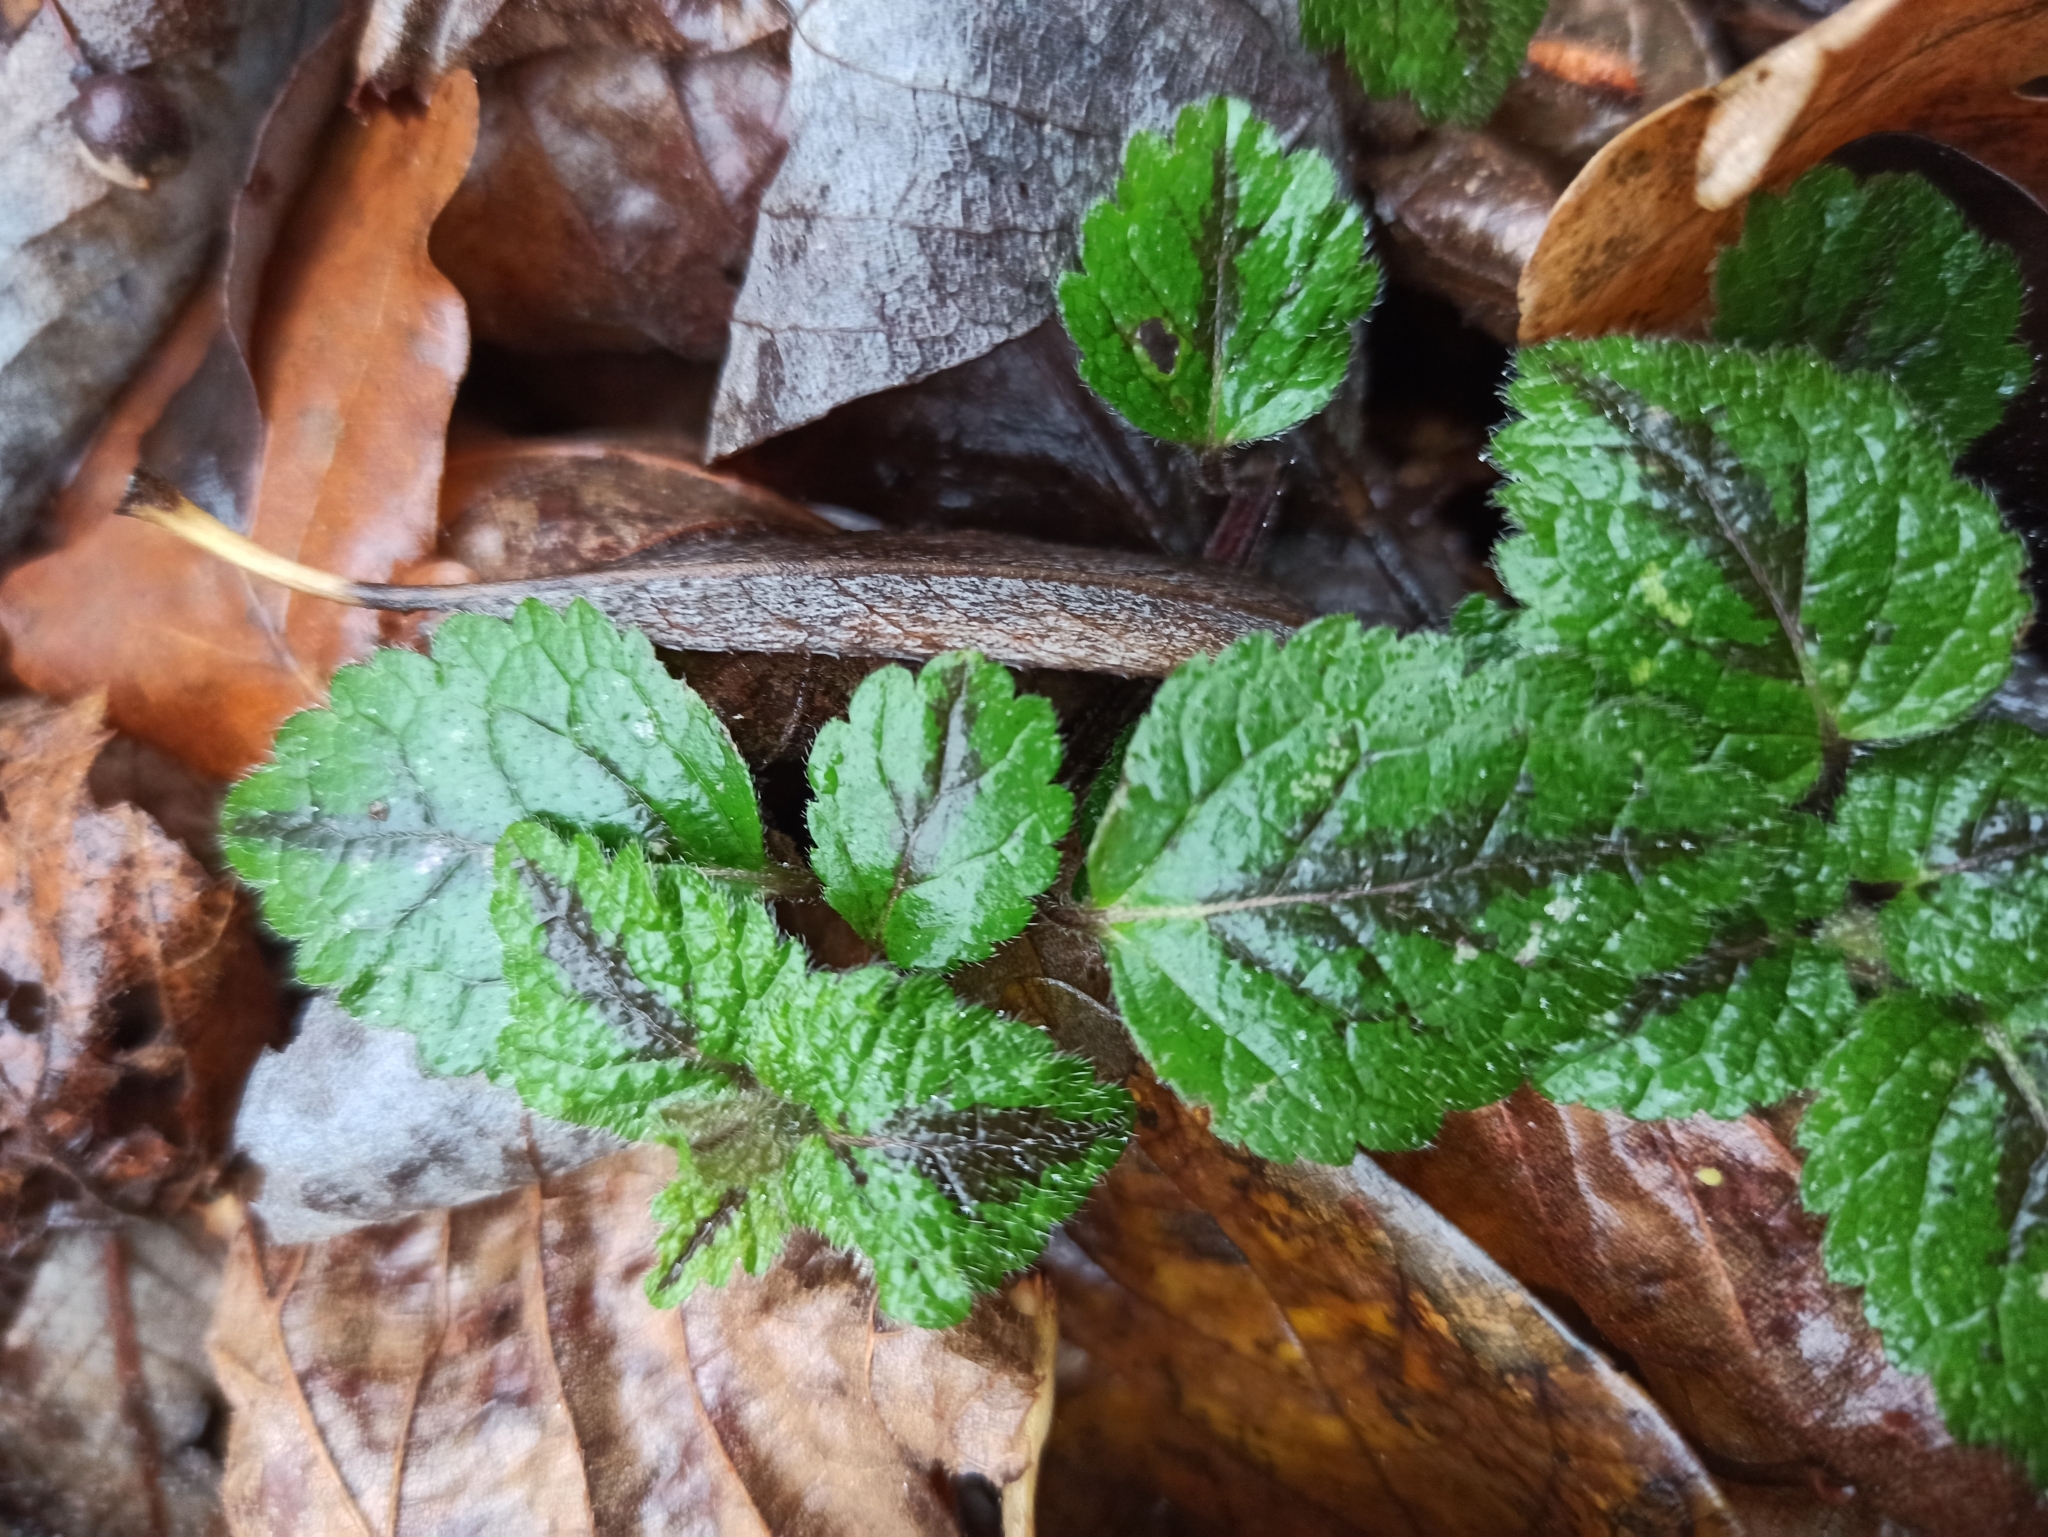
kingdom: Plantae
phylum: Tracheophyta
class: Magnoliopsida
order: Lamiales
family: Lamiaceae
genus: Lamium
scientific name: Lamium galeobdolon
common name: Yellow archangel
